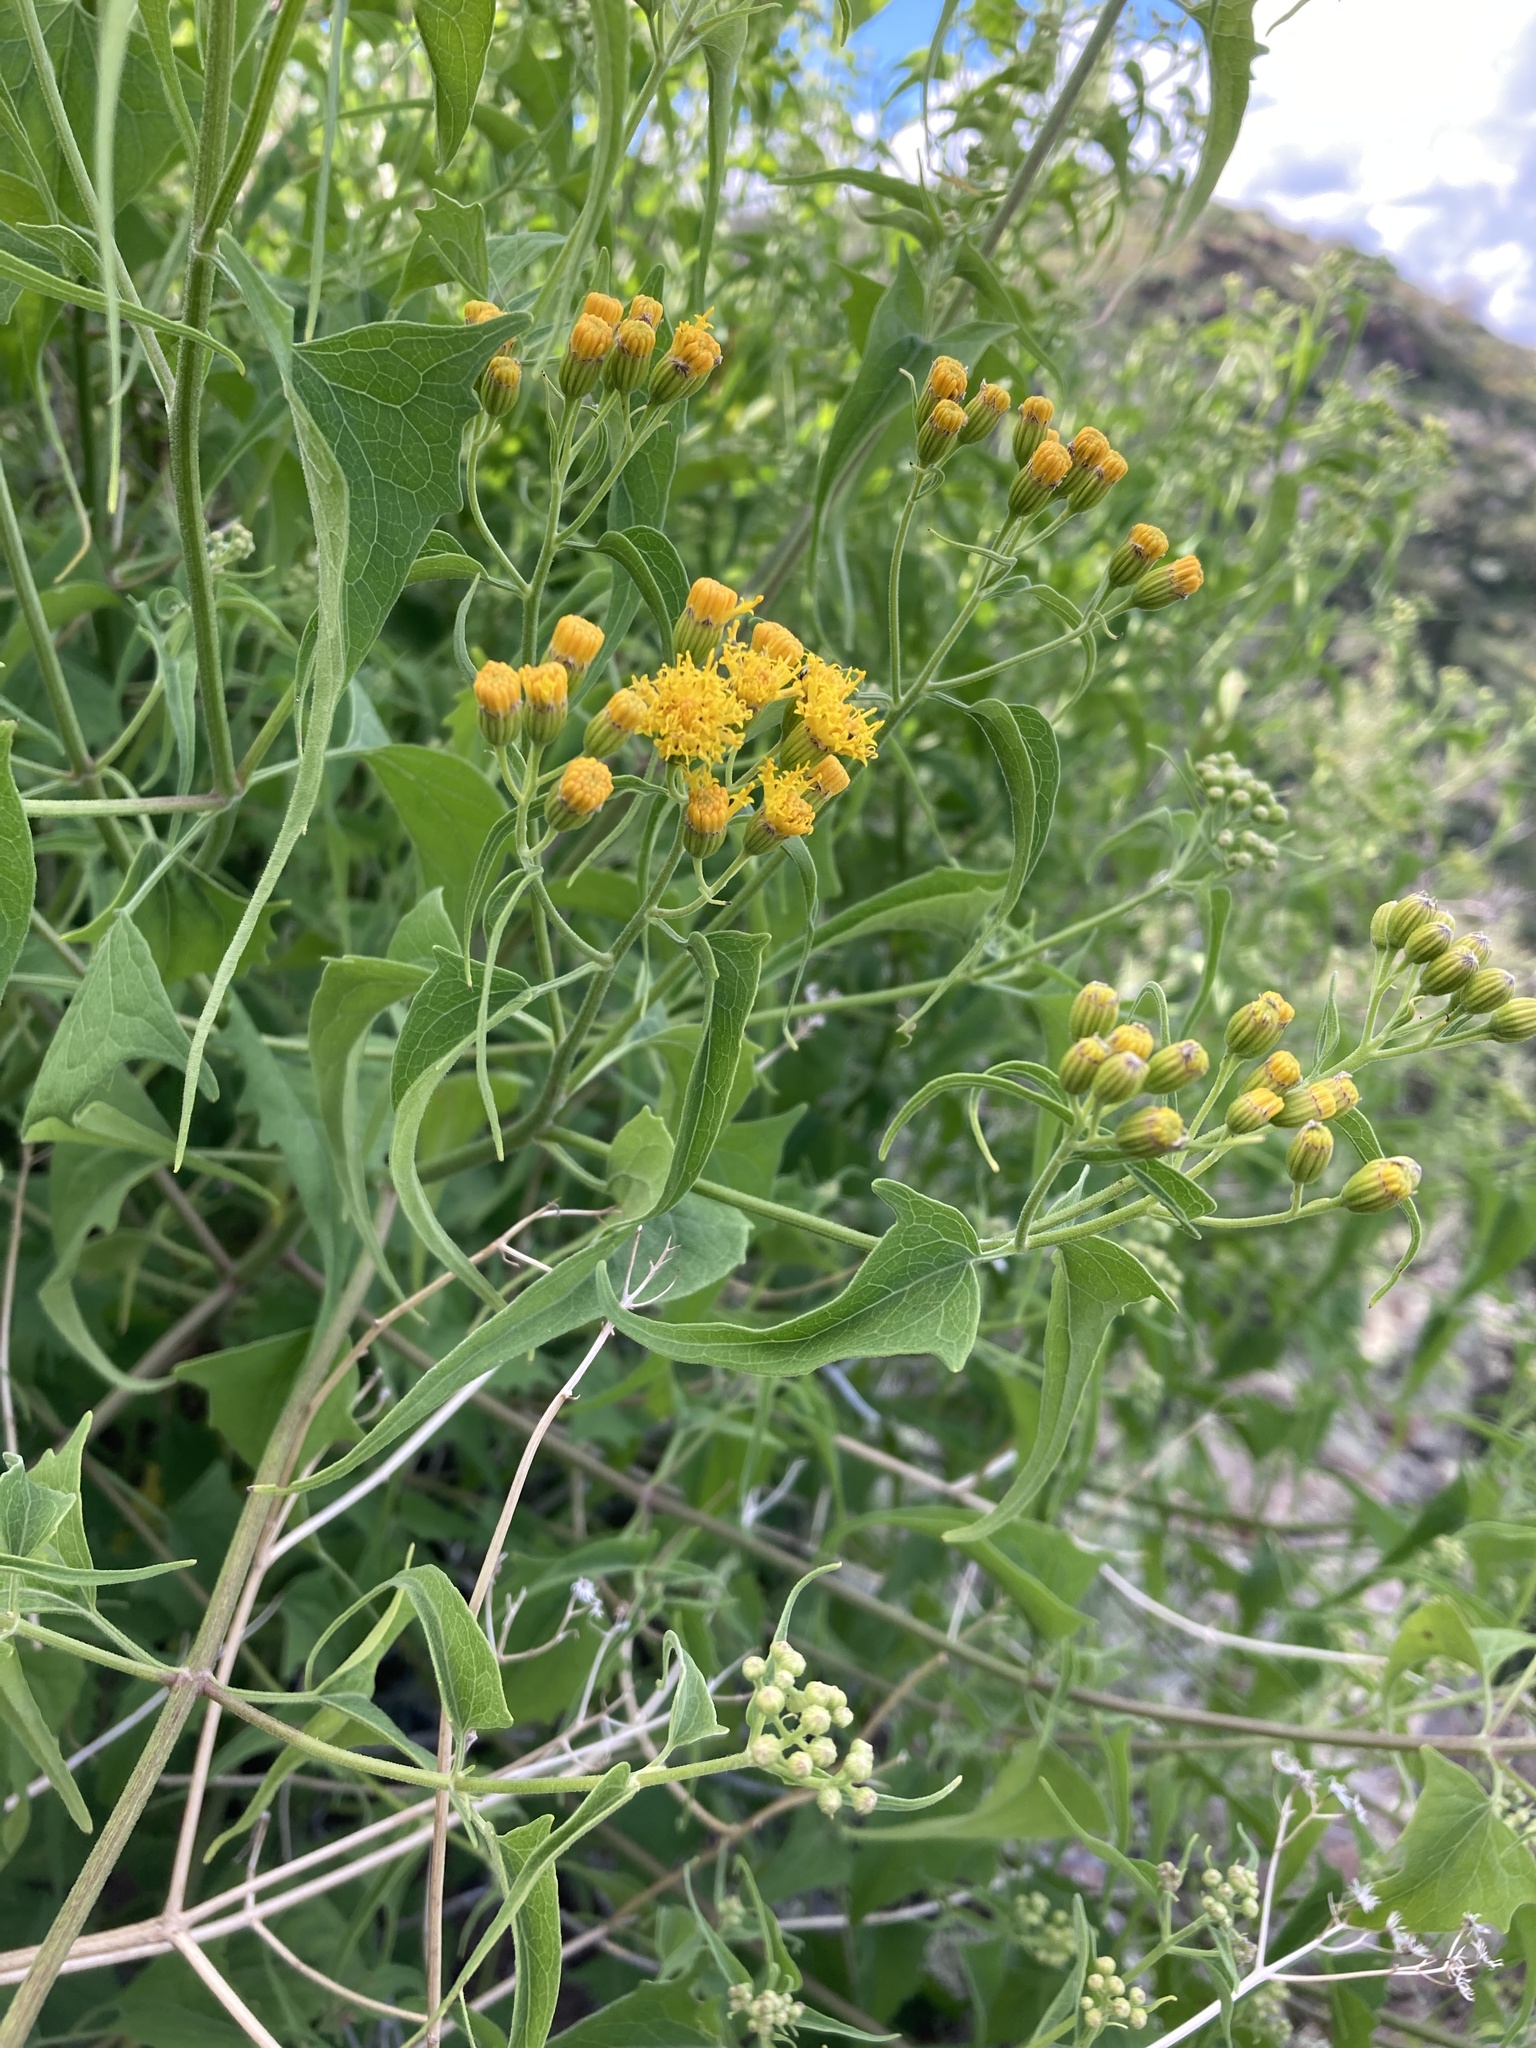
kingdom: Plantae
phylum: Tracheophyta
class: Magnoliopsida
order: Asterales
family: Asteraceae
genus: Pericome
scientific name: Pericome caudata
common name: Taperleaf
